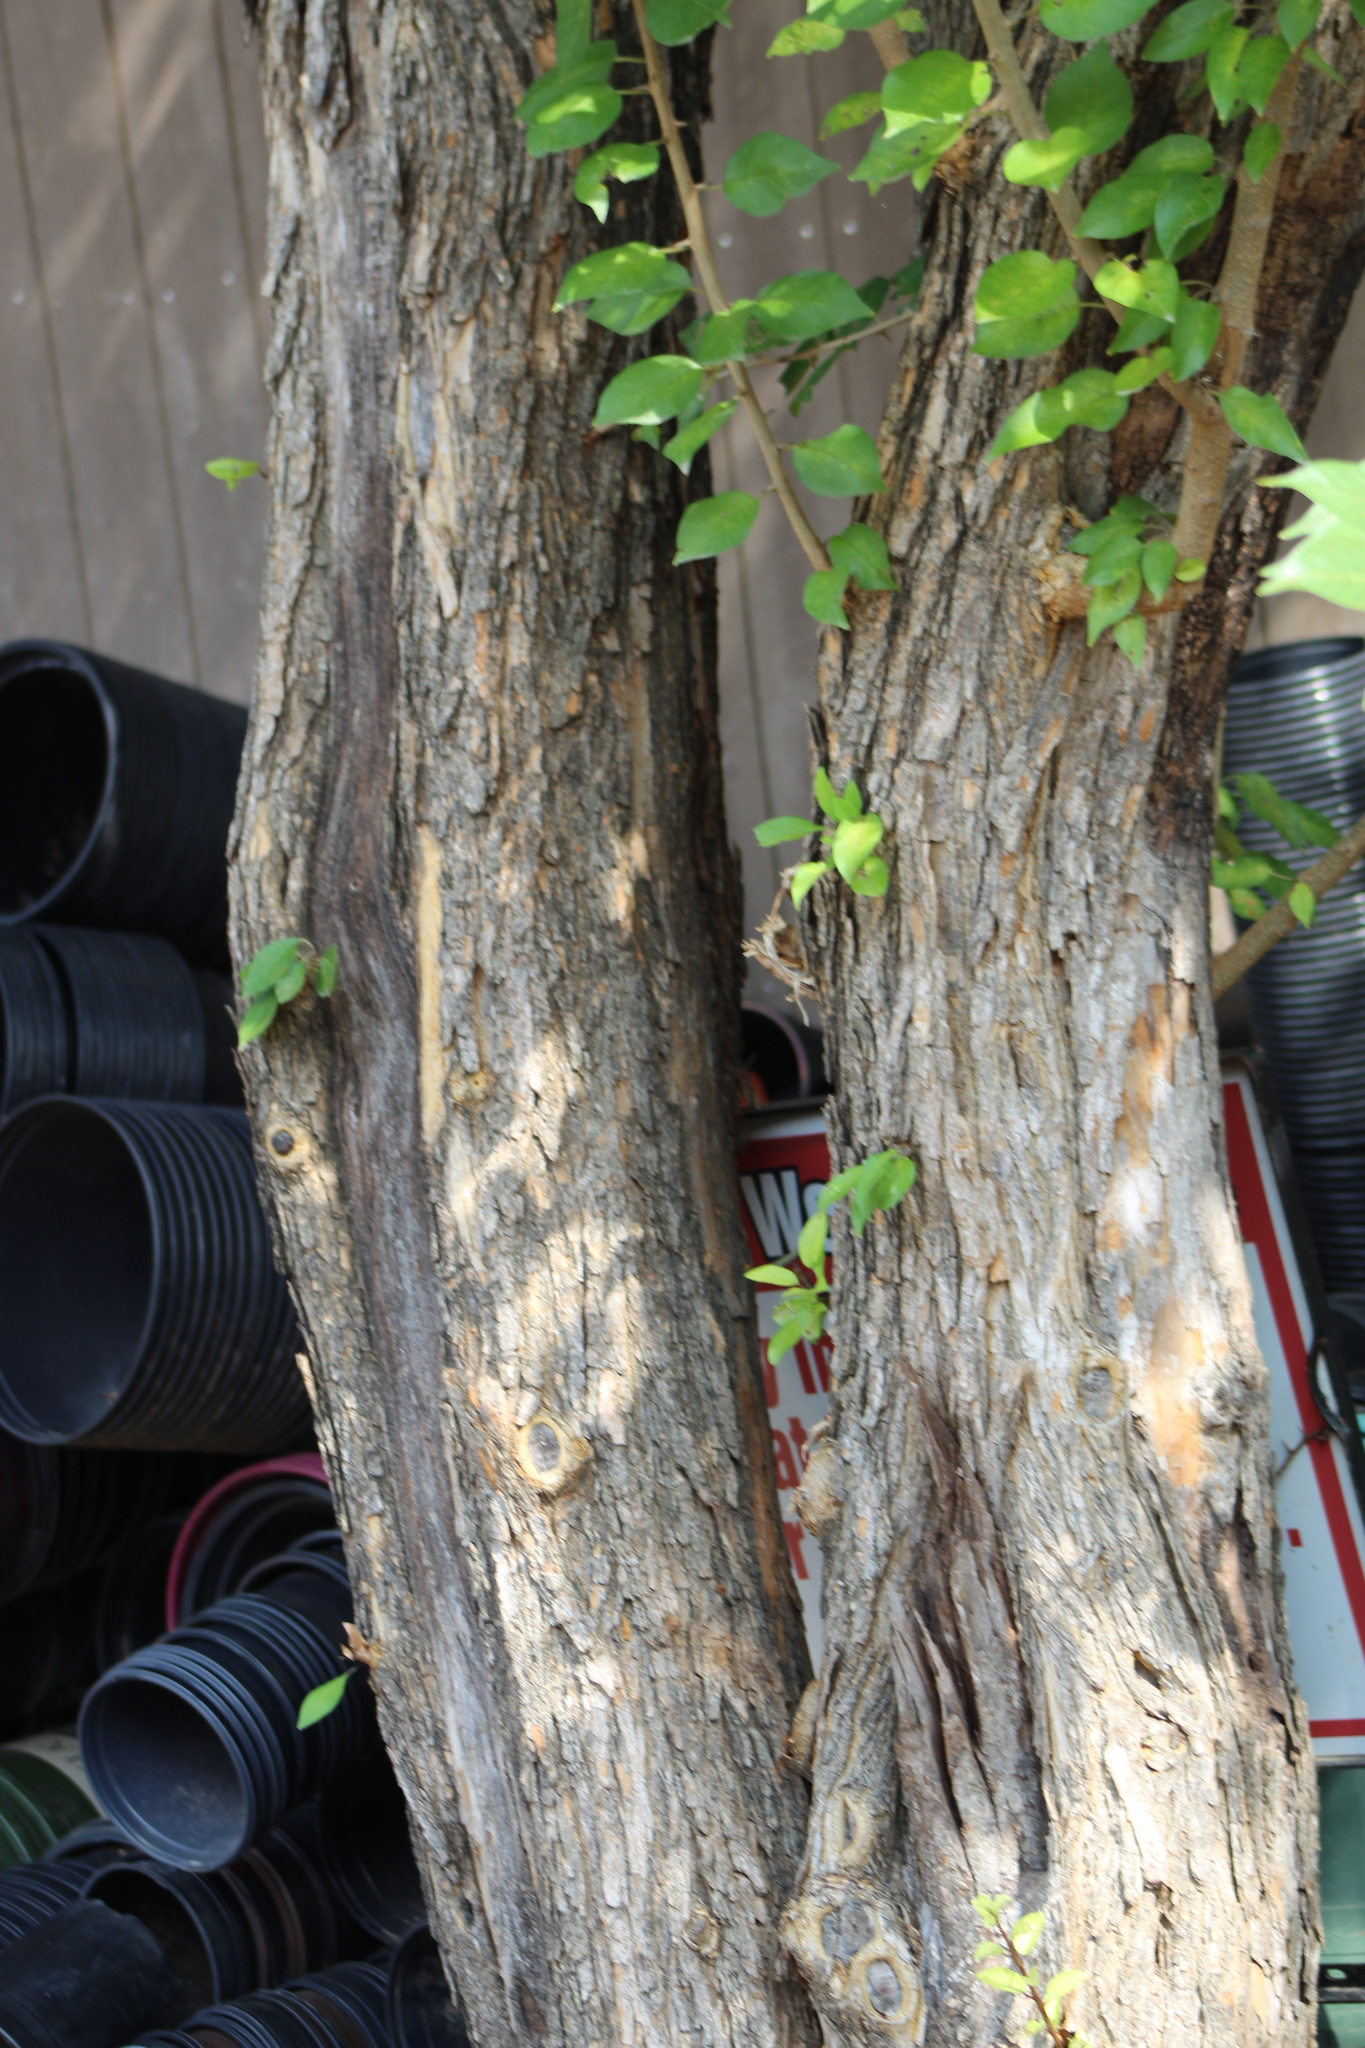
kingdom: Plantae
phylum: Tracheophyta
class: Magnoliopsida
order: Rosales
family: Moraceae
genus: Maclura
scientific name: Maclura pomifera
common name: Osage-orange
